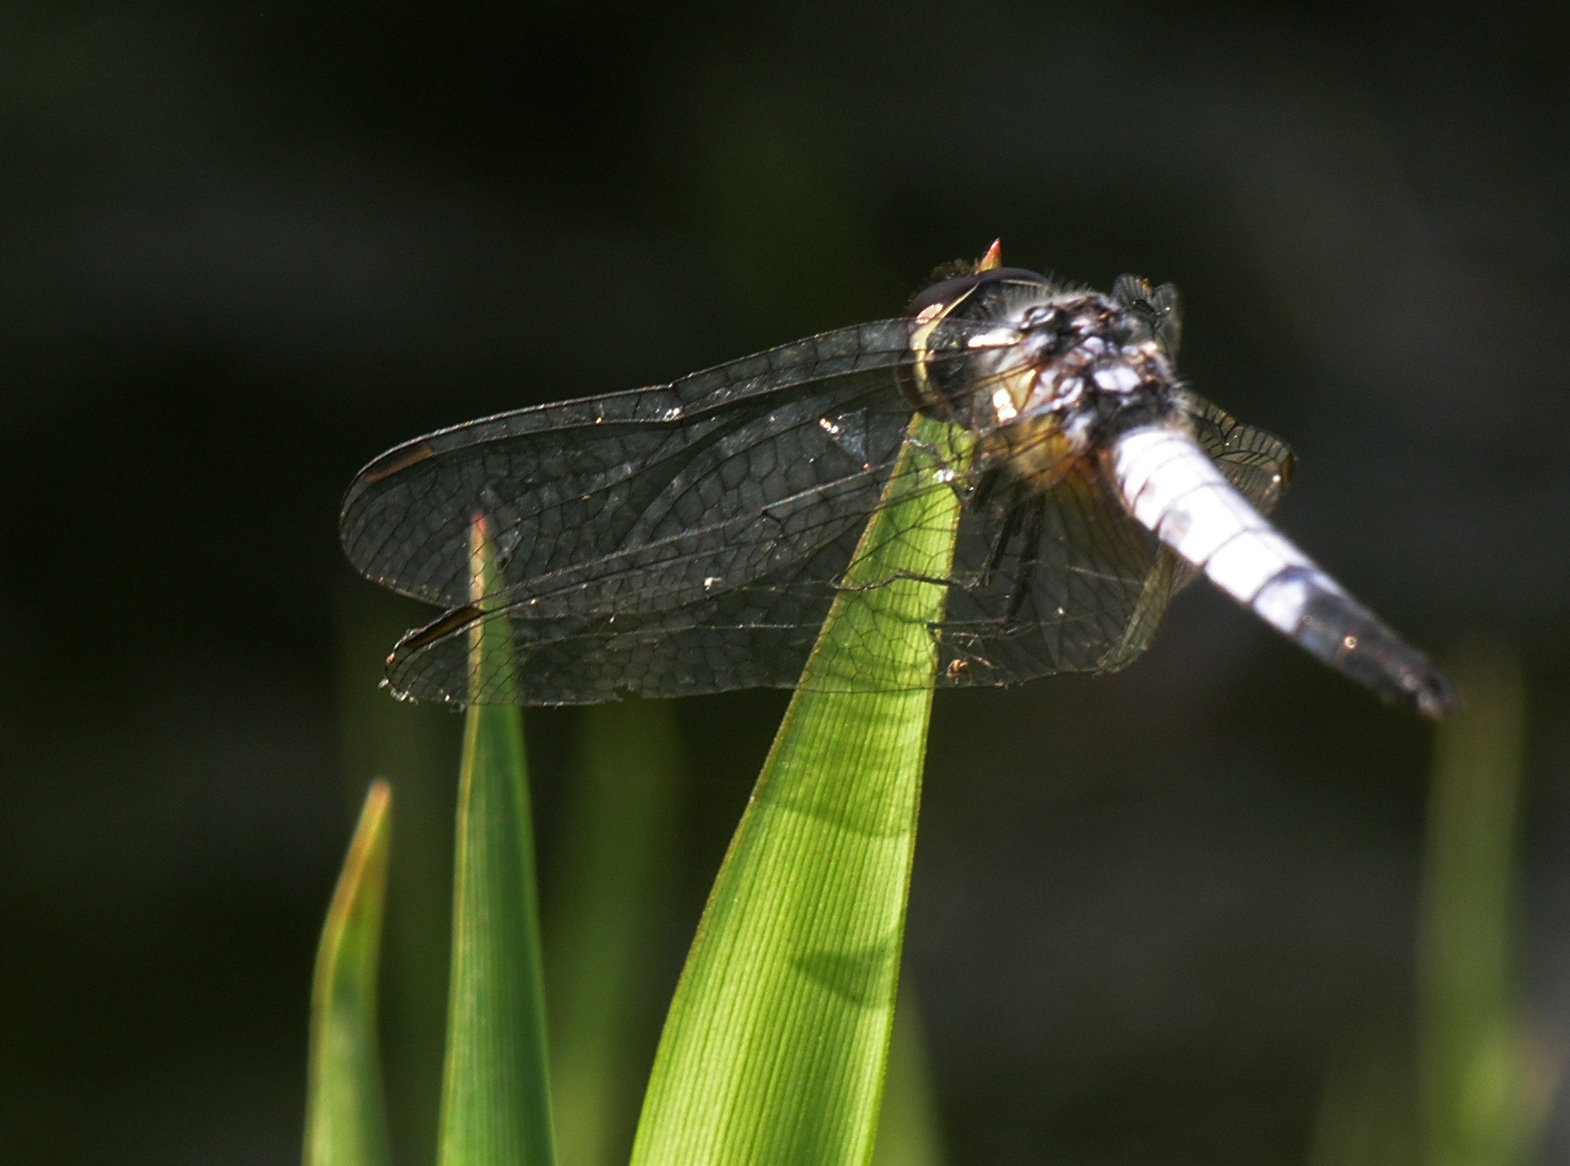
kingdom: Animalia
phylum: Arthropoda
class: Insecta
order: Odonata
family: Libellulidae
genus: Aethriamanta
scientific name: Aethriamanta gracilis
